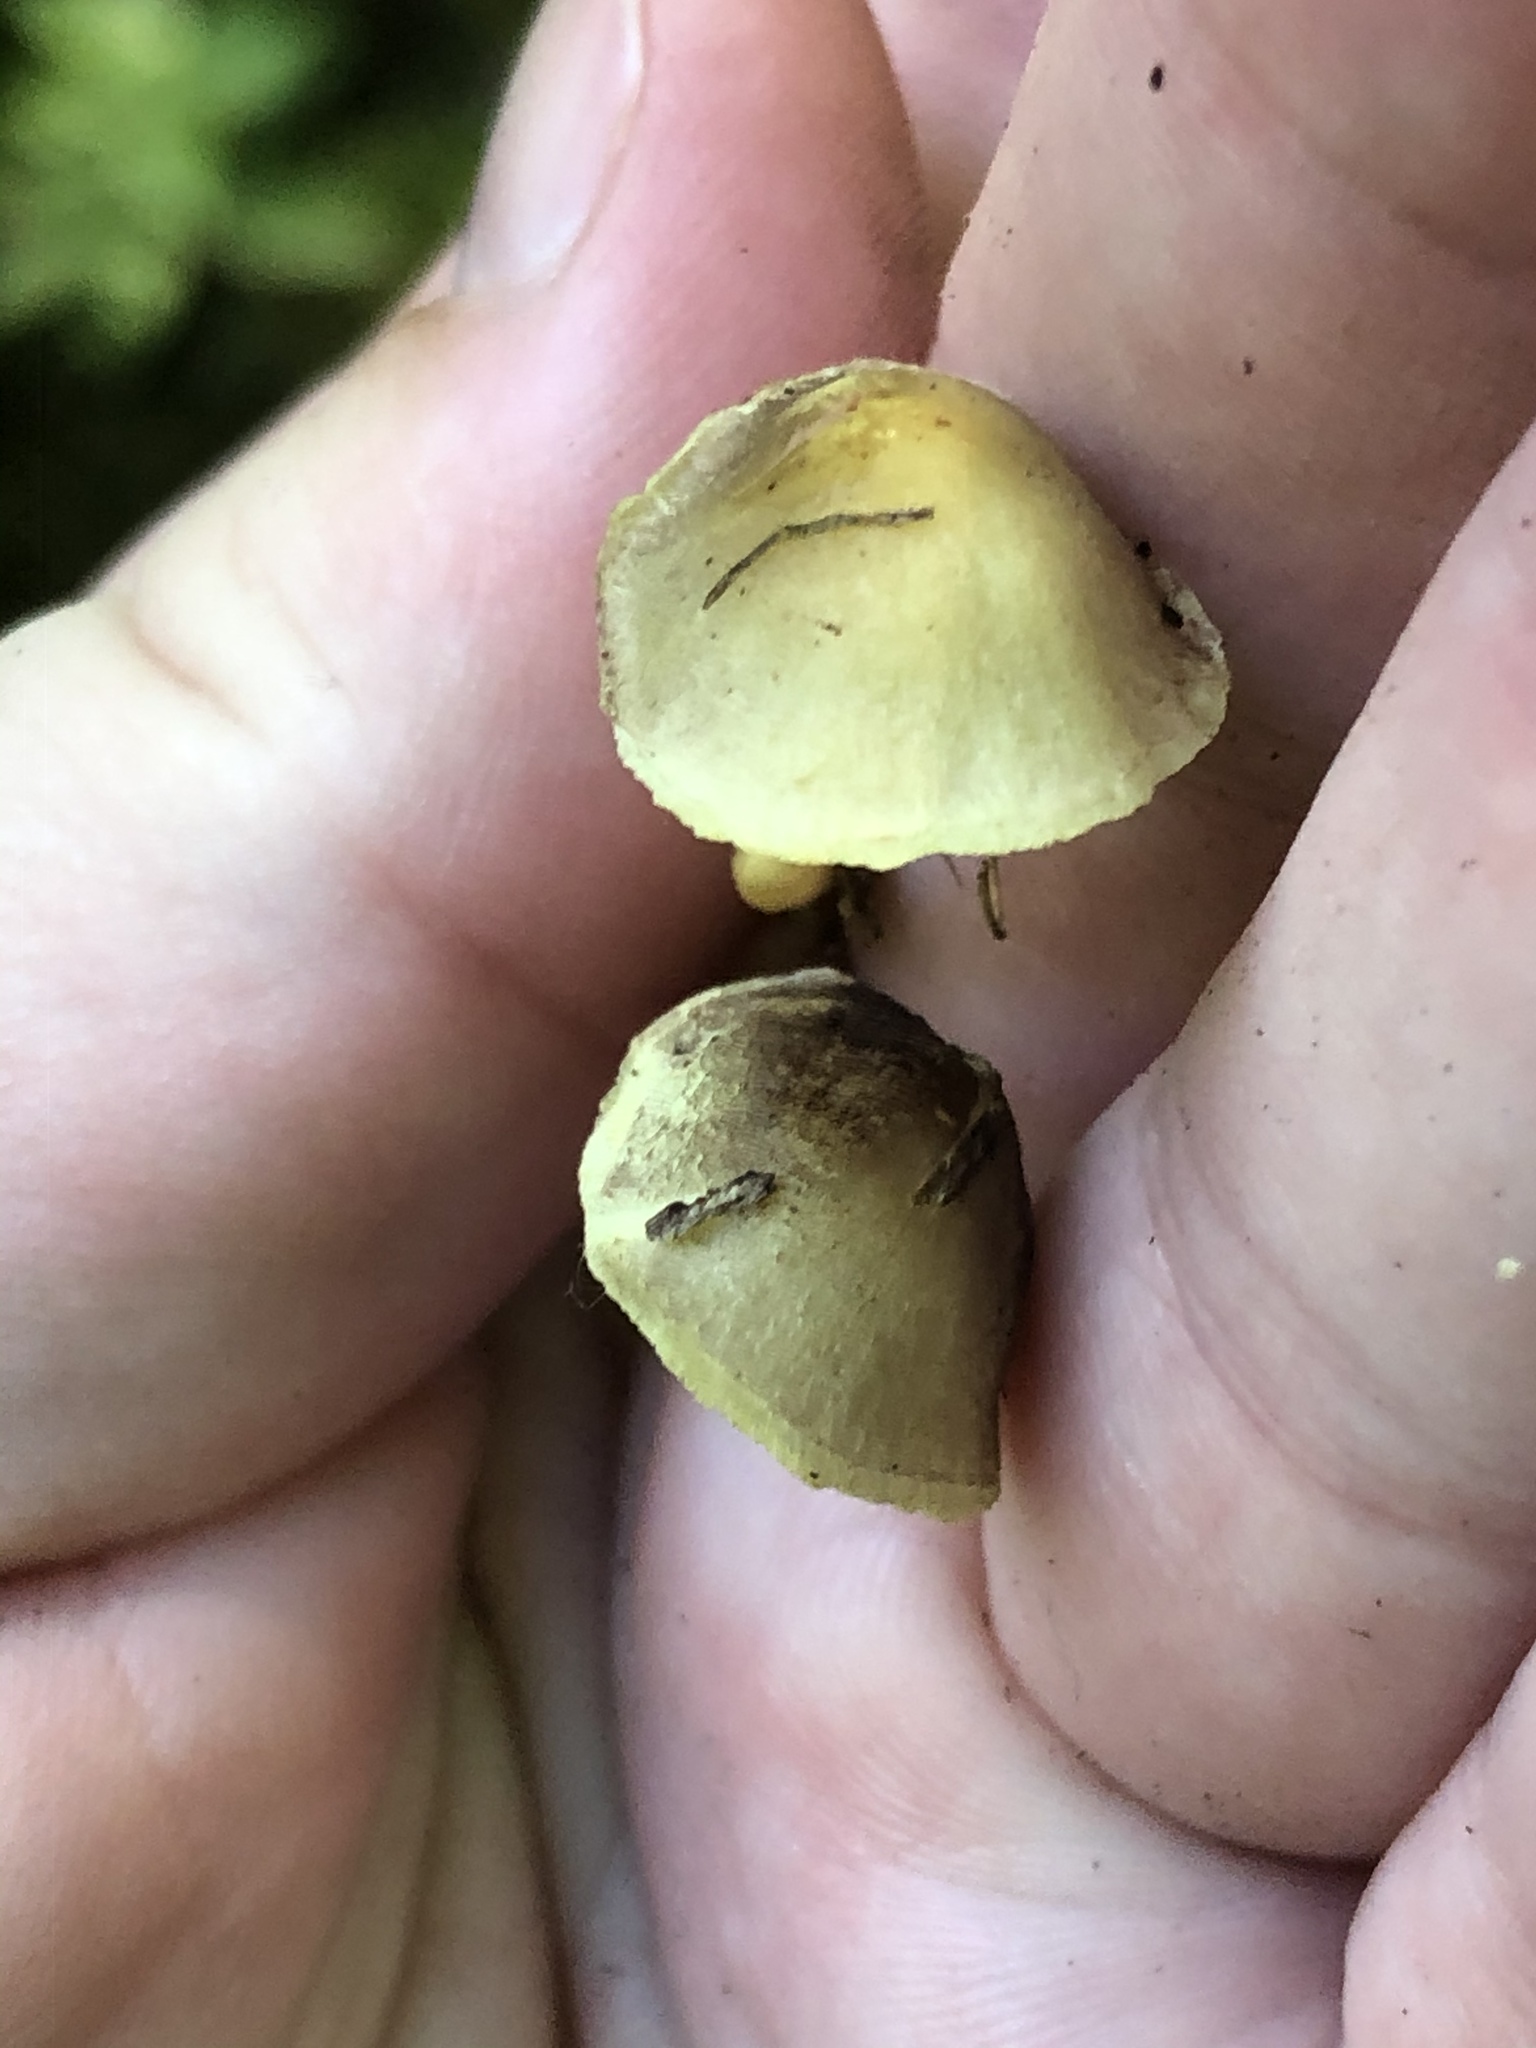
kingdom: Fungi
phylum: Basidiomycota
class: Agaricomycetes
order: Agaricales
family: Strophariaceae
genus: Hypholoma
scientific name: Hypholoma fasciculare
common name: Sulphur tuft
